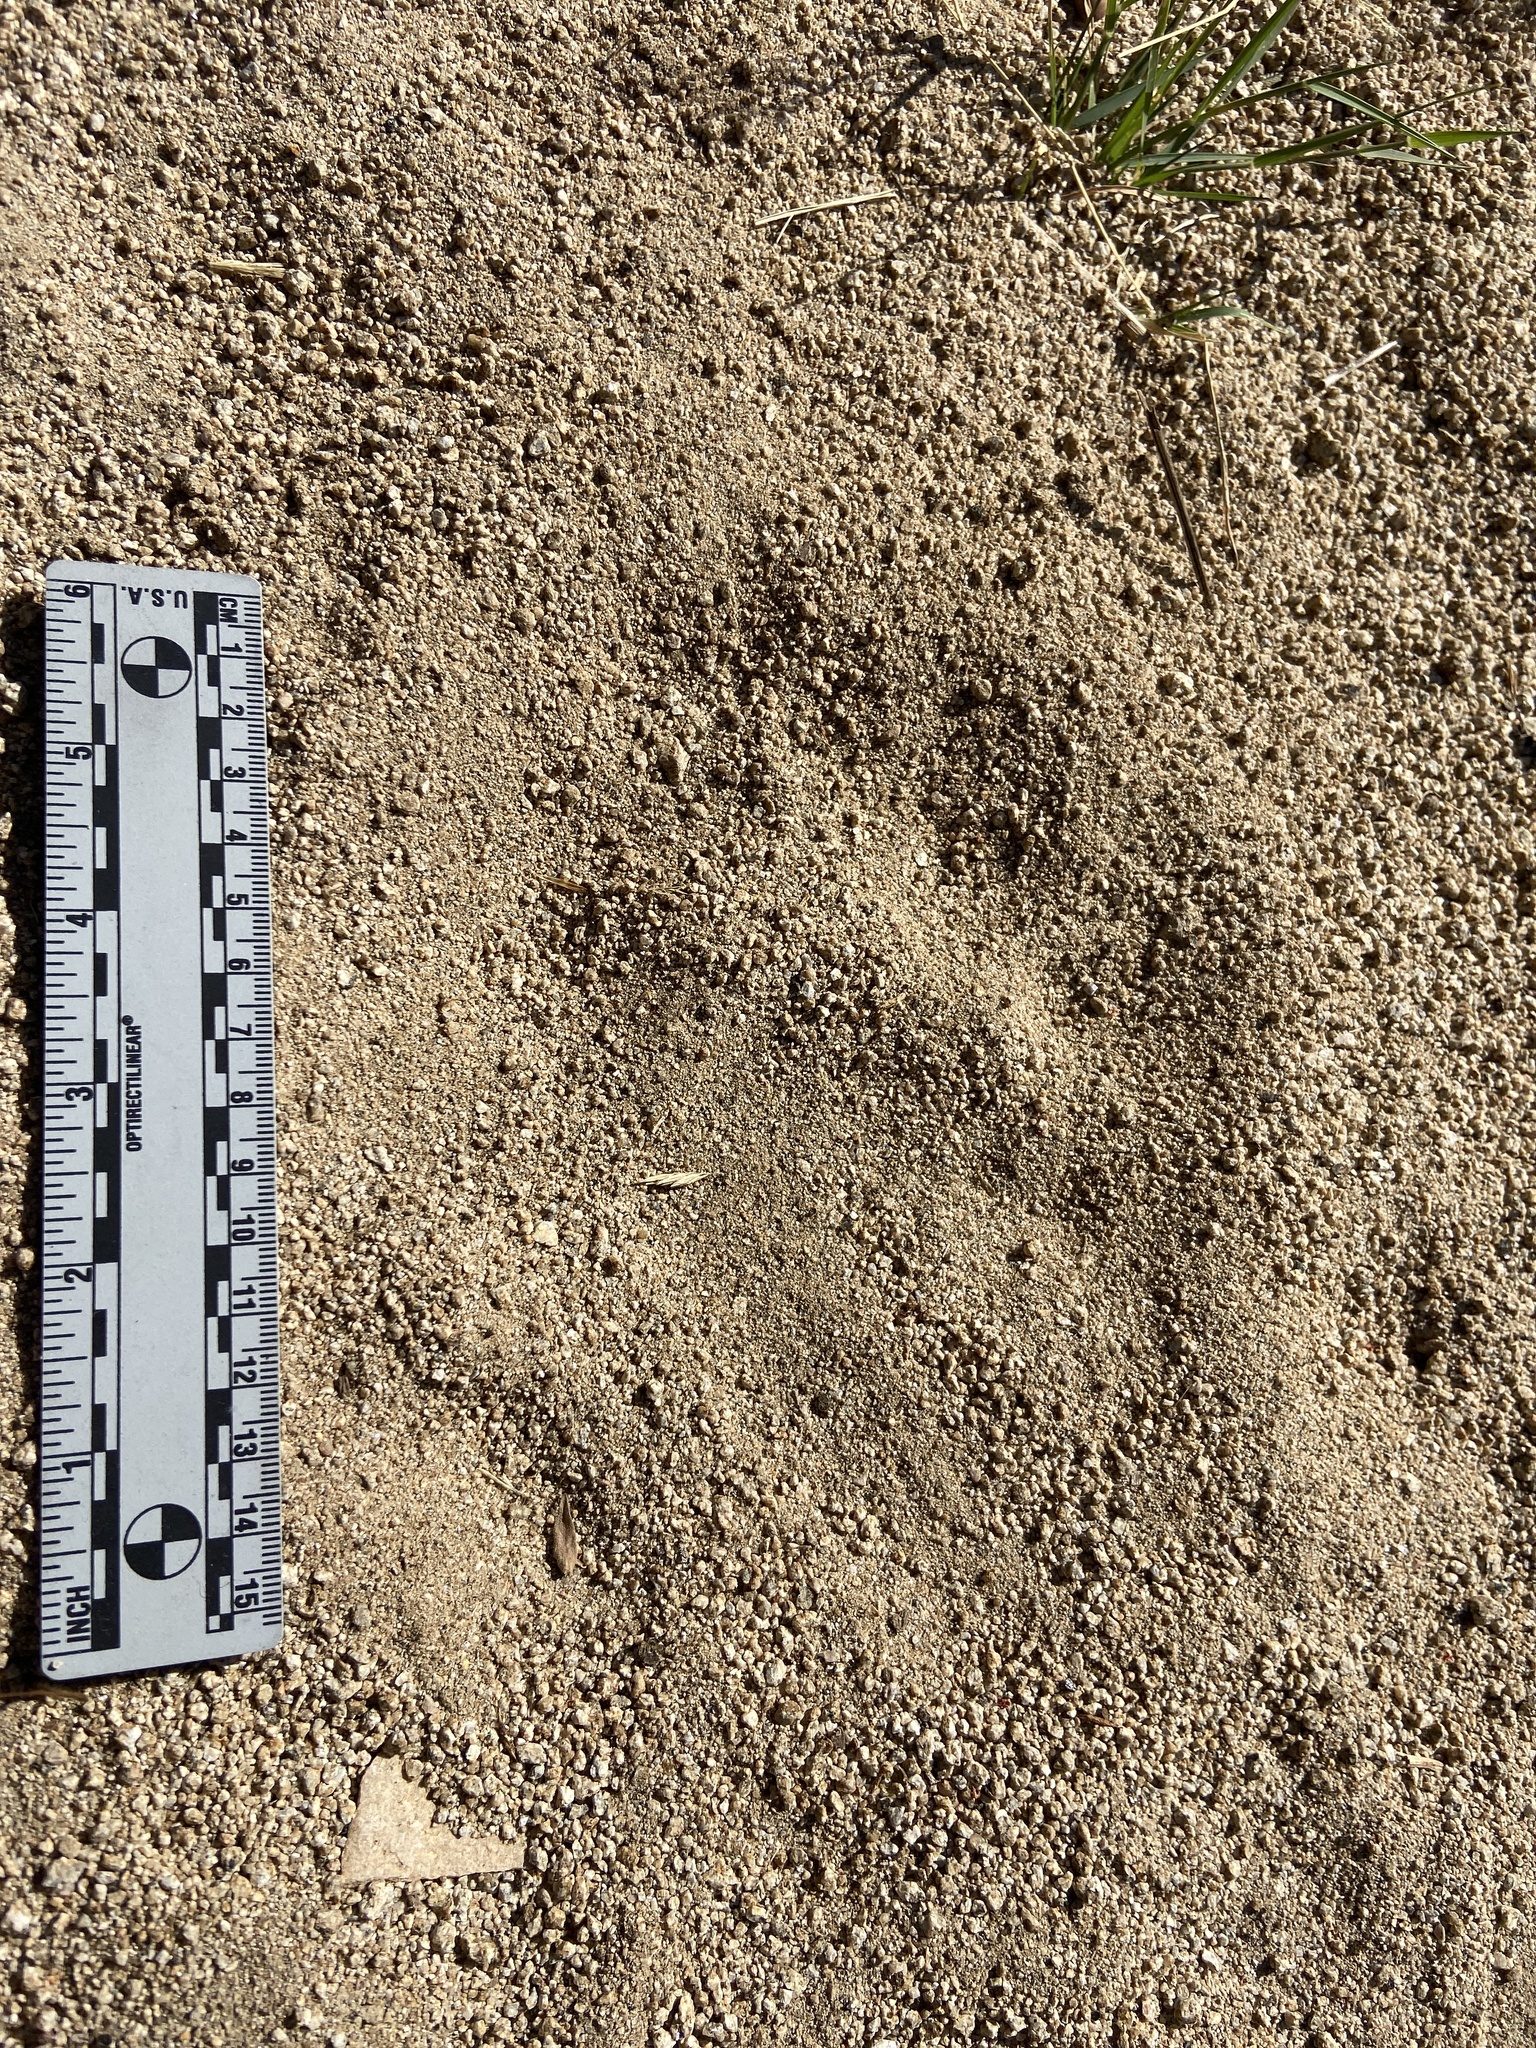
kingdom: Animalia
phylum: Chordata
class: Mammalia
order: Carnivora
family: Ursidae
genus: Ursus
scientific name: Ursus americanus
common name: American black bear
